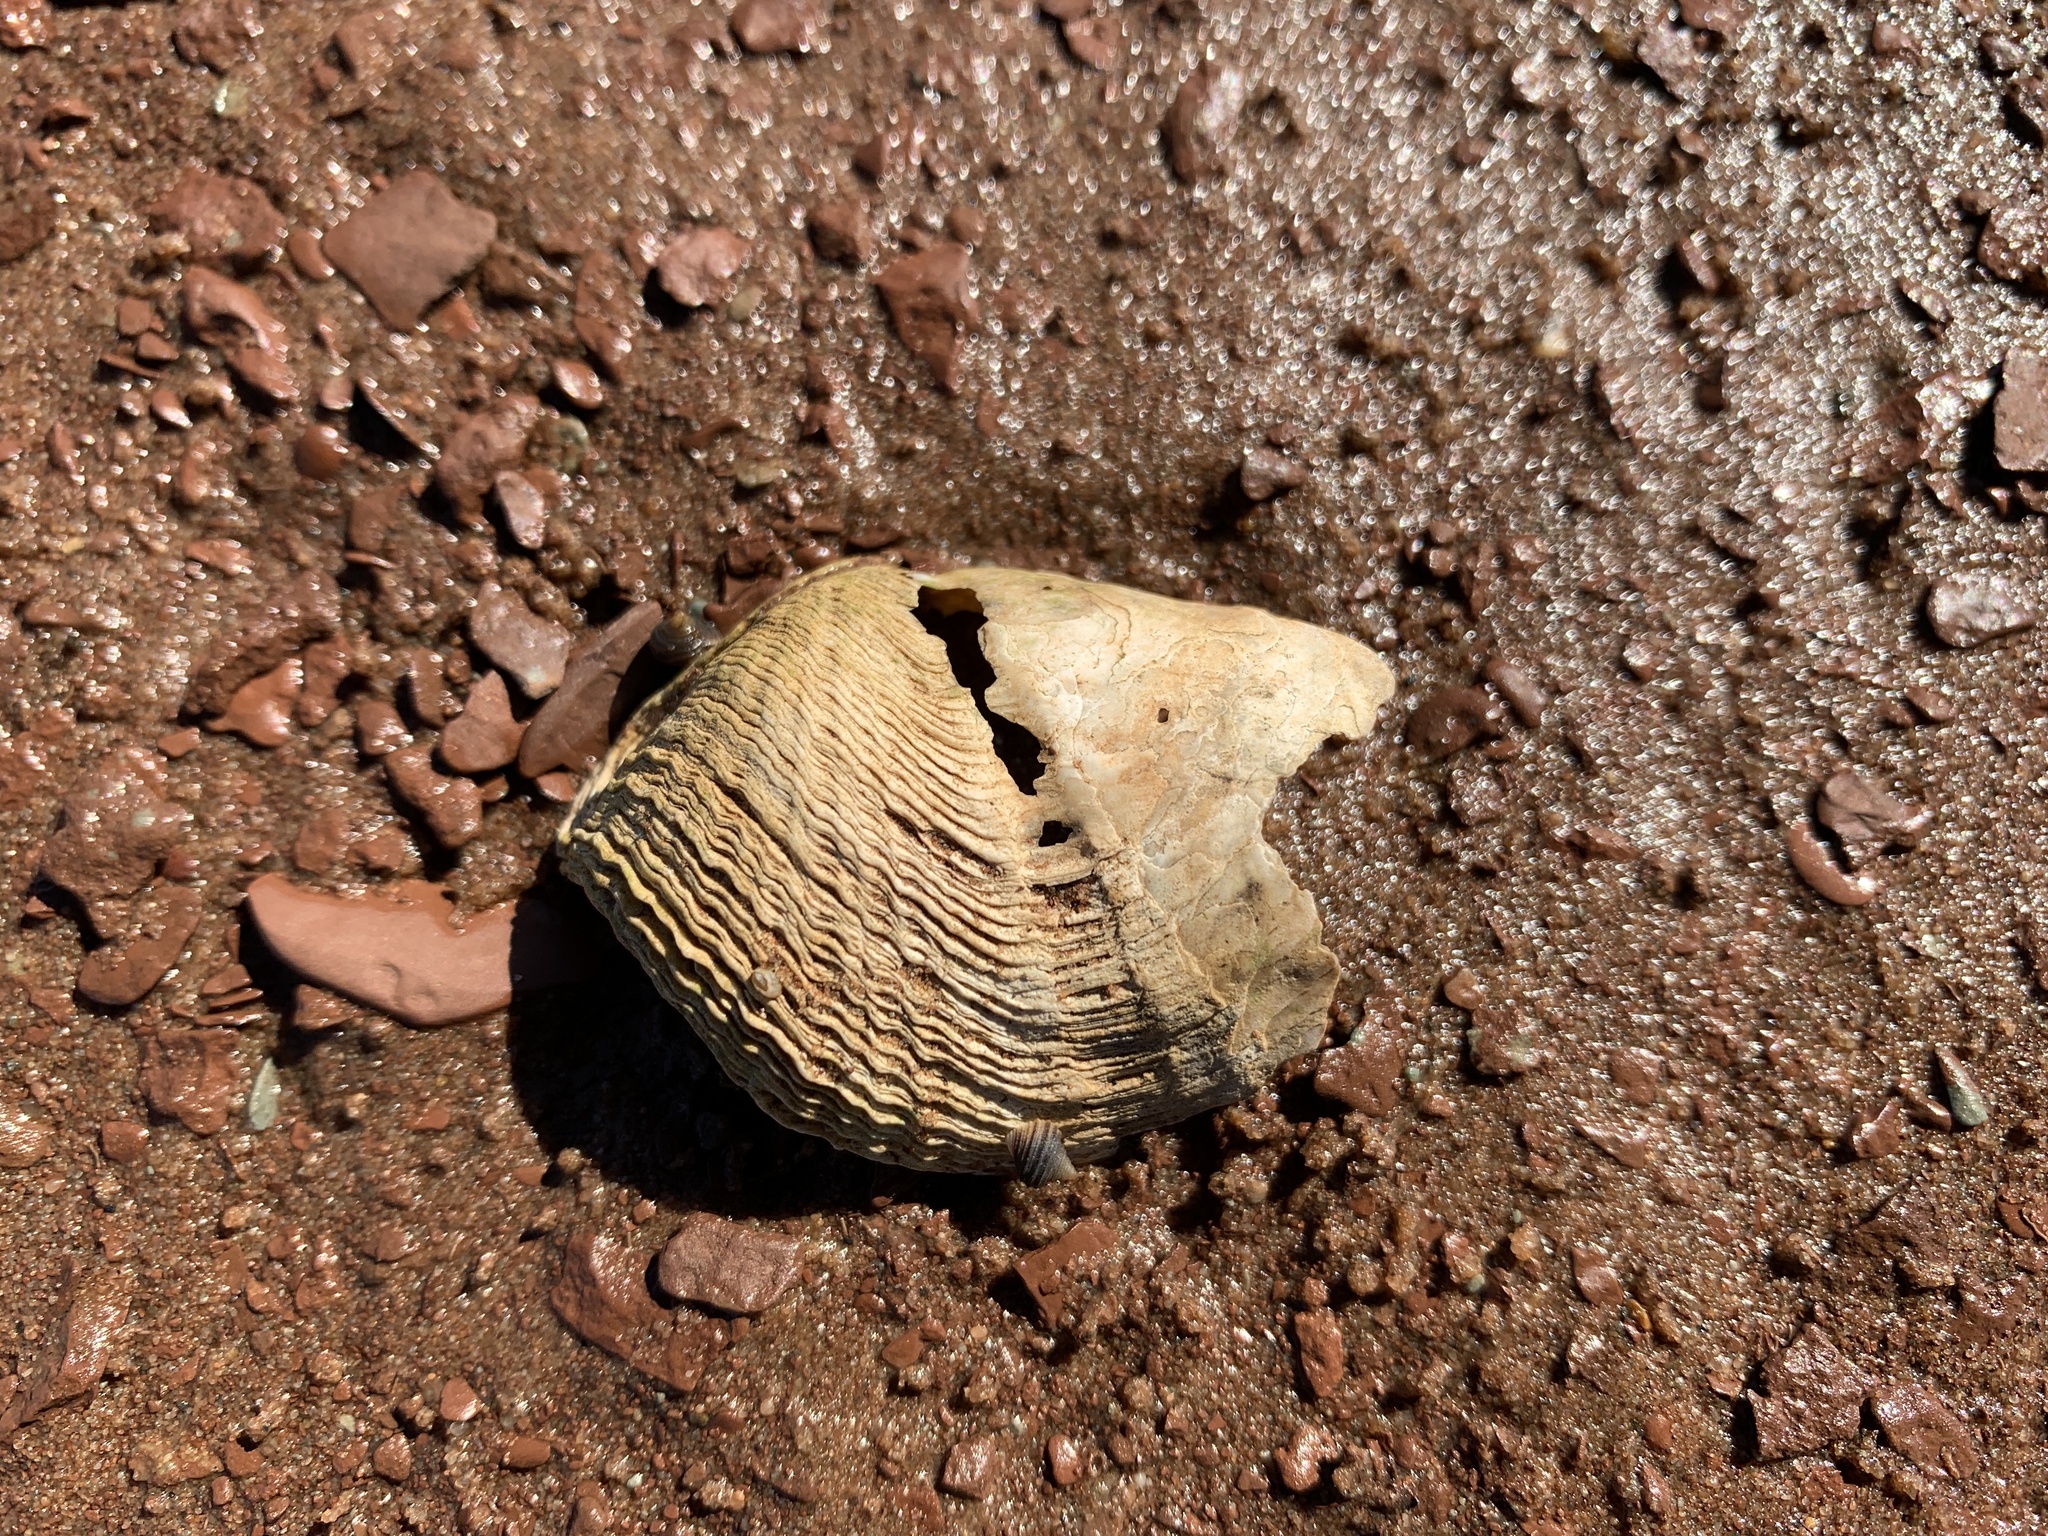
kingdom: Animalia
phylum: Mollusca
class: Bivalvia
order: Myida
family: Pholadidae
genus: Zirfaea
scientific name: Zirfaea crispata
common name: Oval piddock
